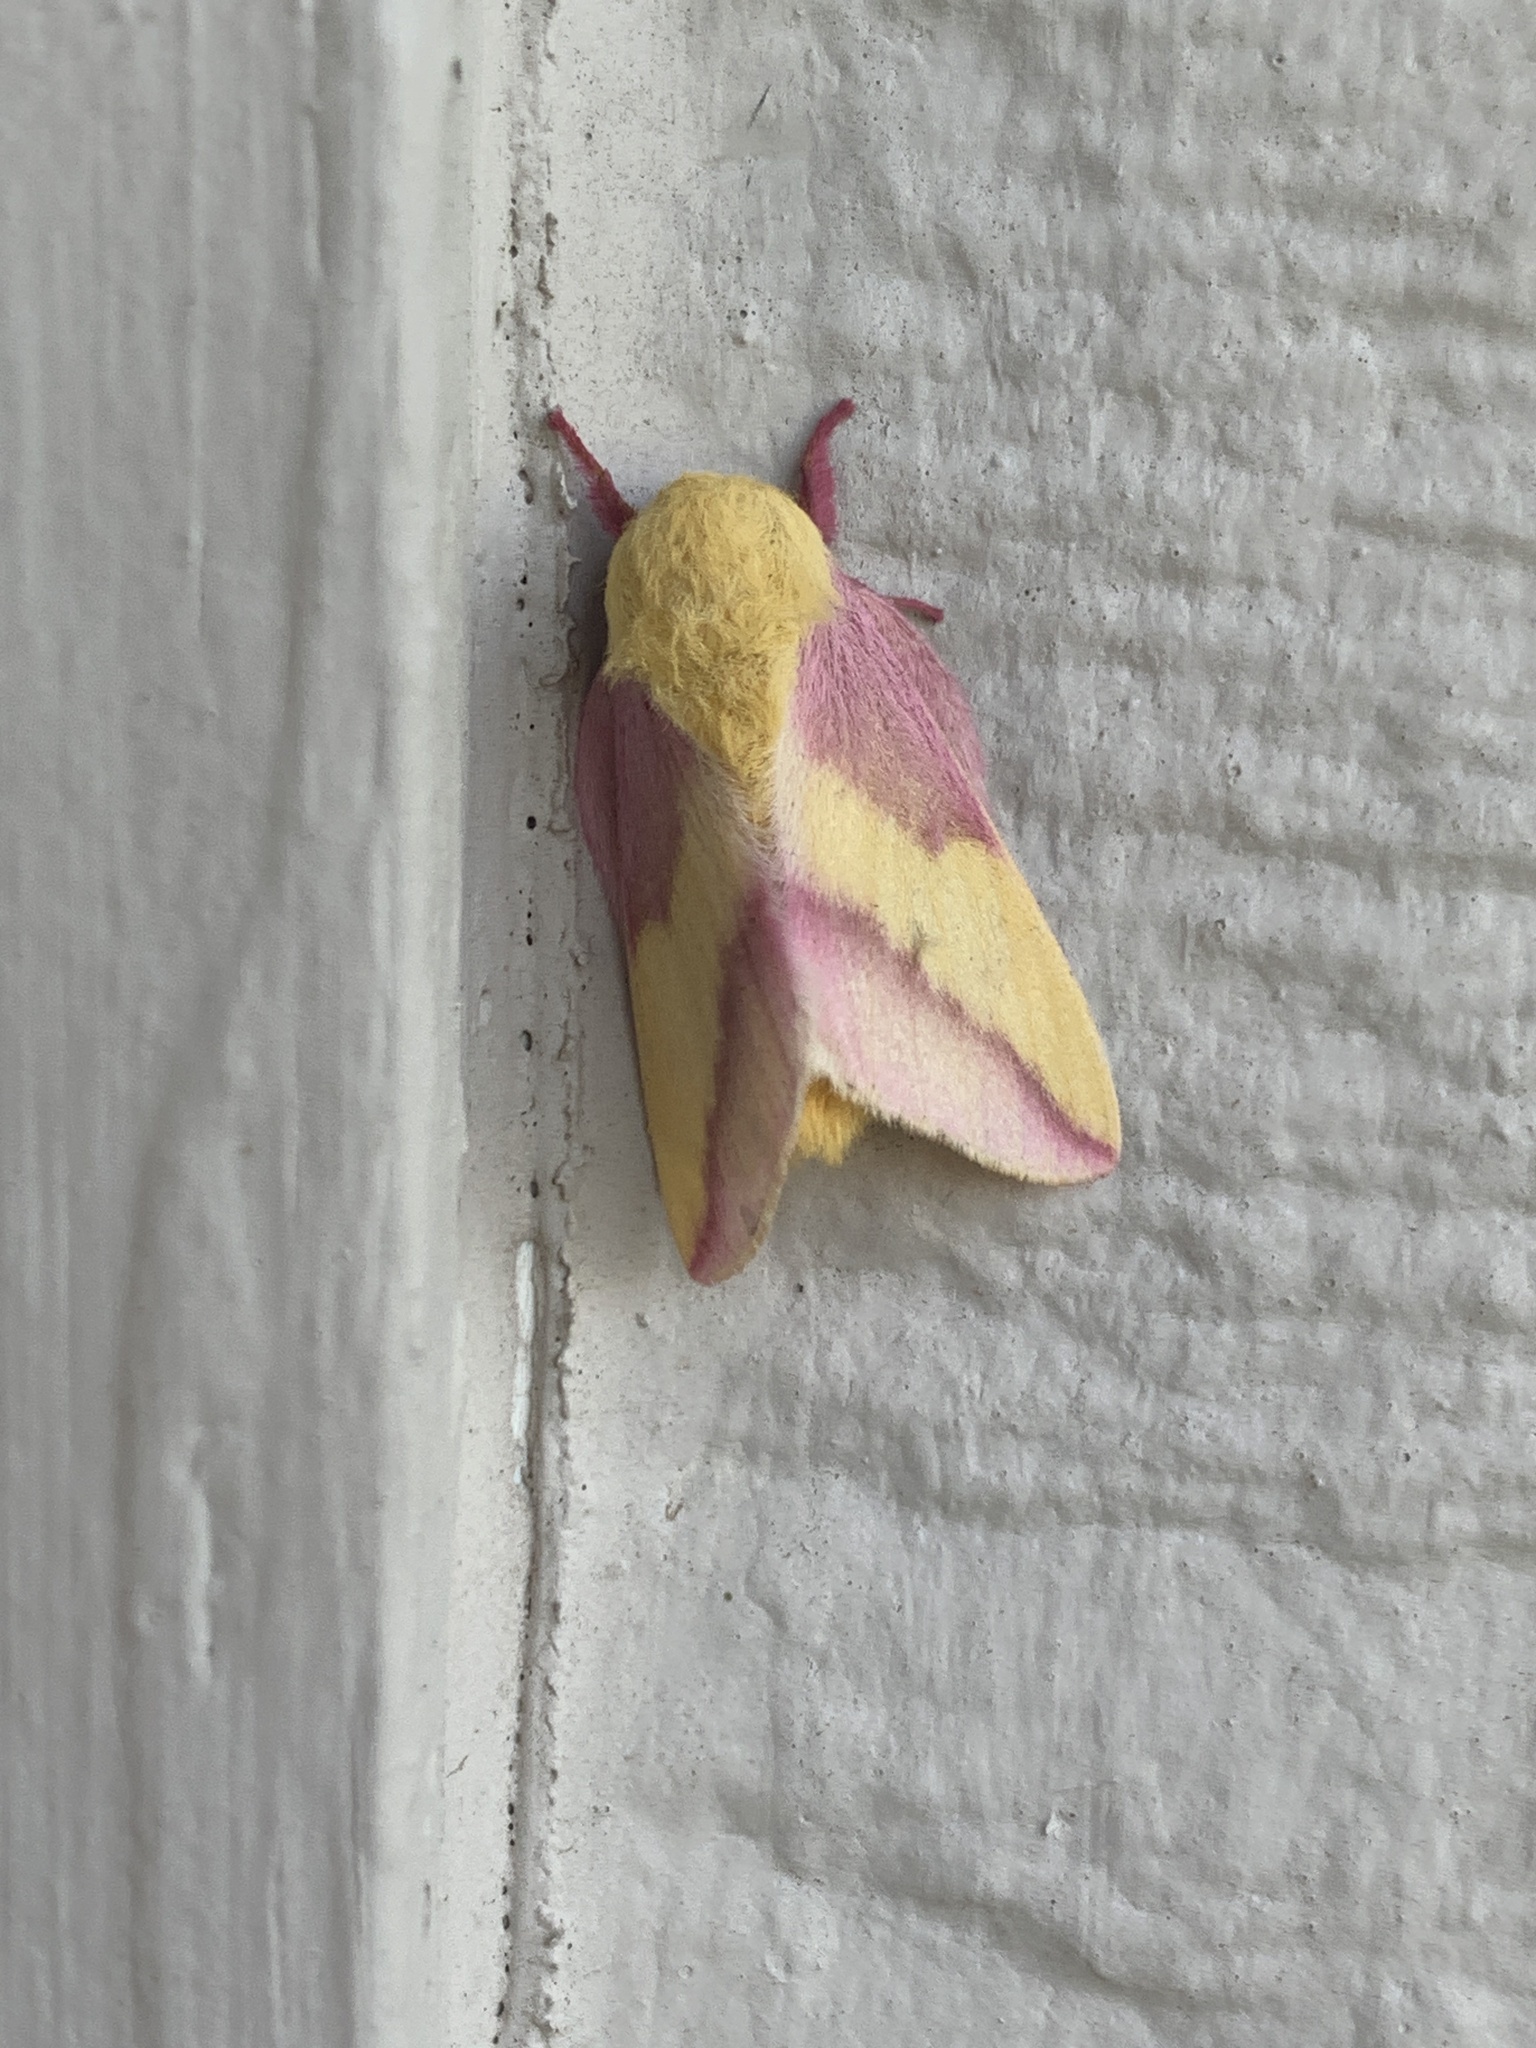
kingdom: Animalia
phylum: Arthropoda
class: Insecta
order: Lepidoptera
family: Saturniidae
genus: Dryocampa
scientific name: Dryocampa rubicunda
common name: Rosy maple moth
